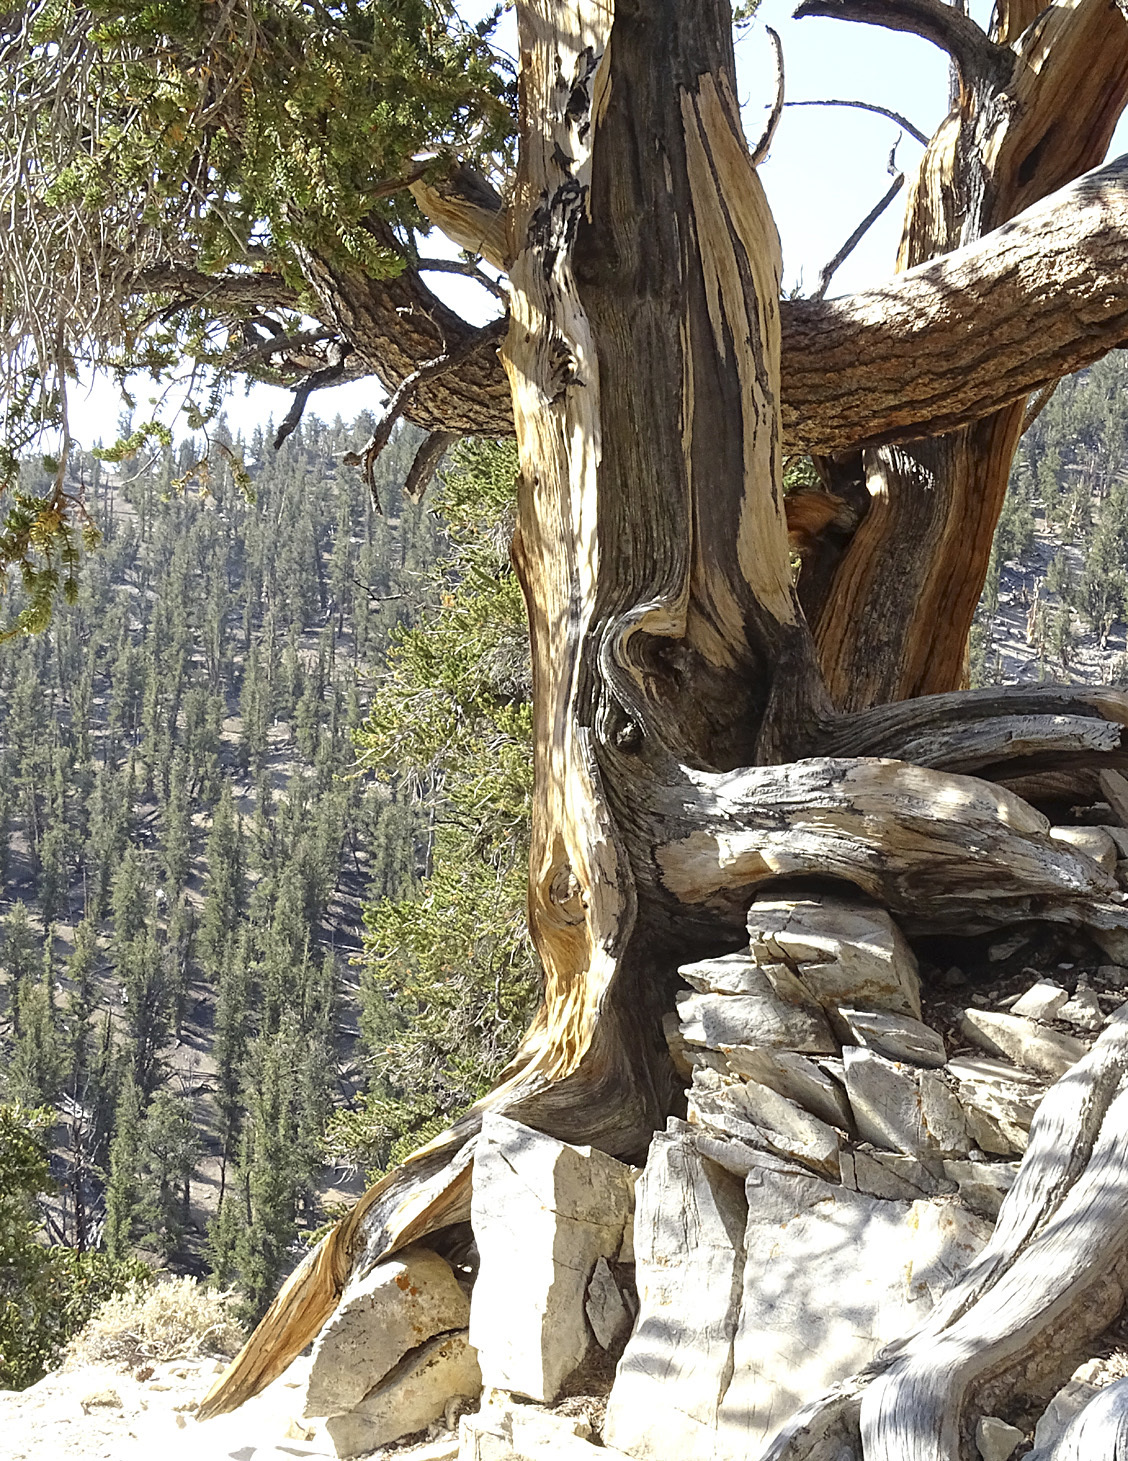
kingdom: Plantae
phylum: Tracheophyta
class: Pinopsida
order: Pinales
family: Pinaceae
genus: Pinus
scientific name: Pinus longaeva
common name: Intermountain bristlecone pine
